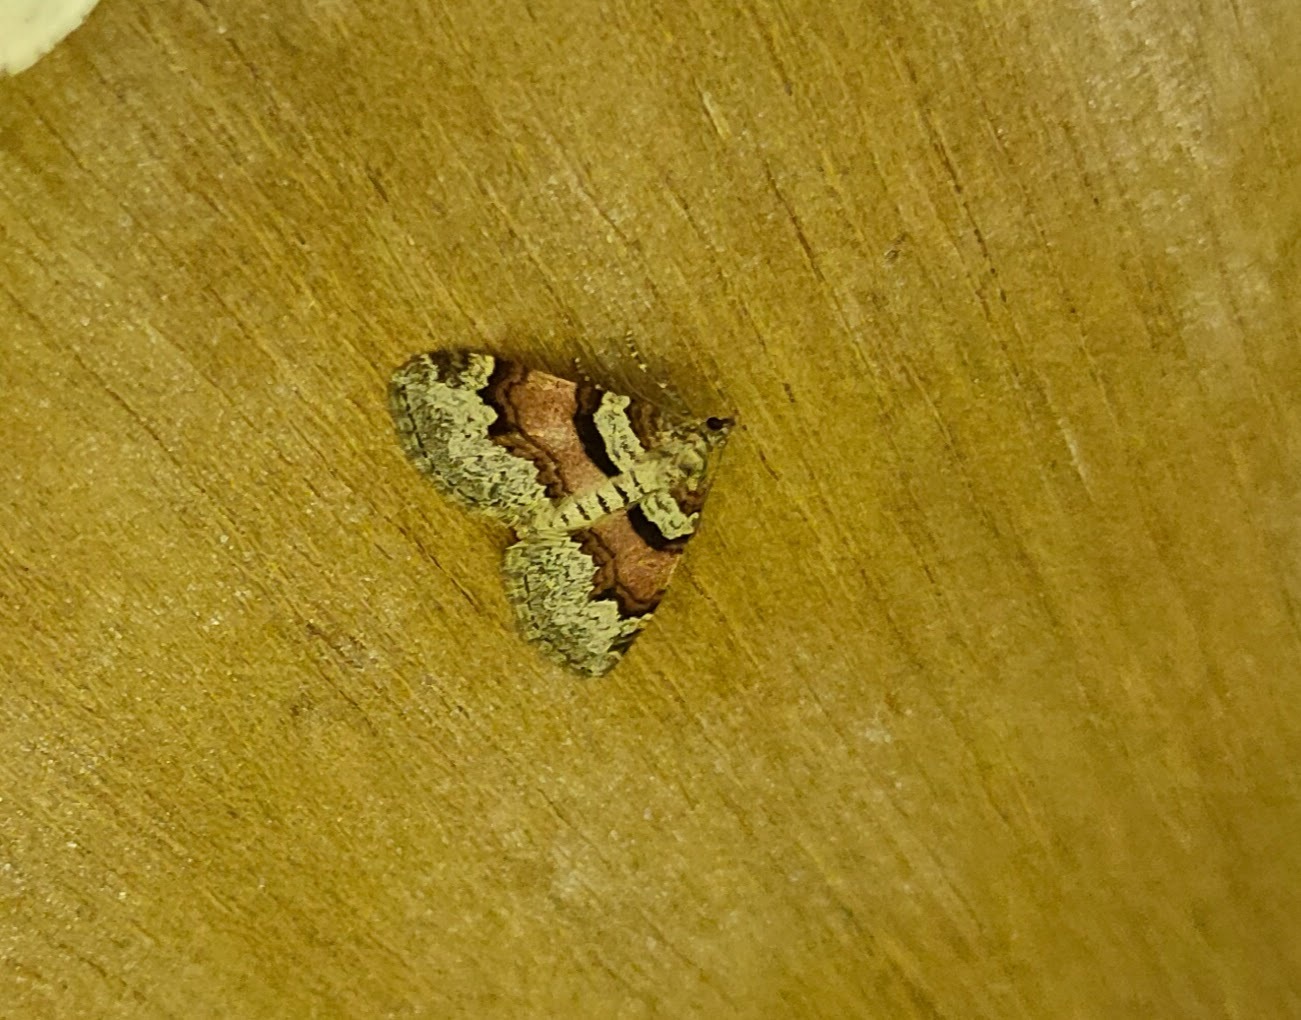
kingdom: Animalia
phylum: Arthropoda
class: Insecta
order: Lepidoptera
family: Geometridae
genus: Xanthorhoe
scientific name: Xanthorhoe designata
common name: Flame carpet
